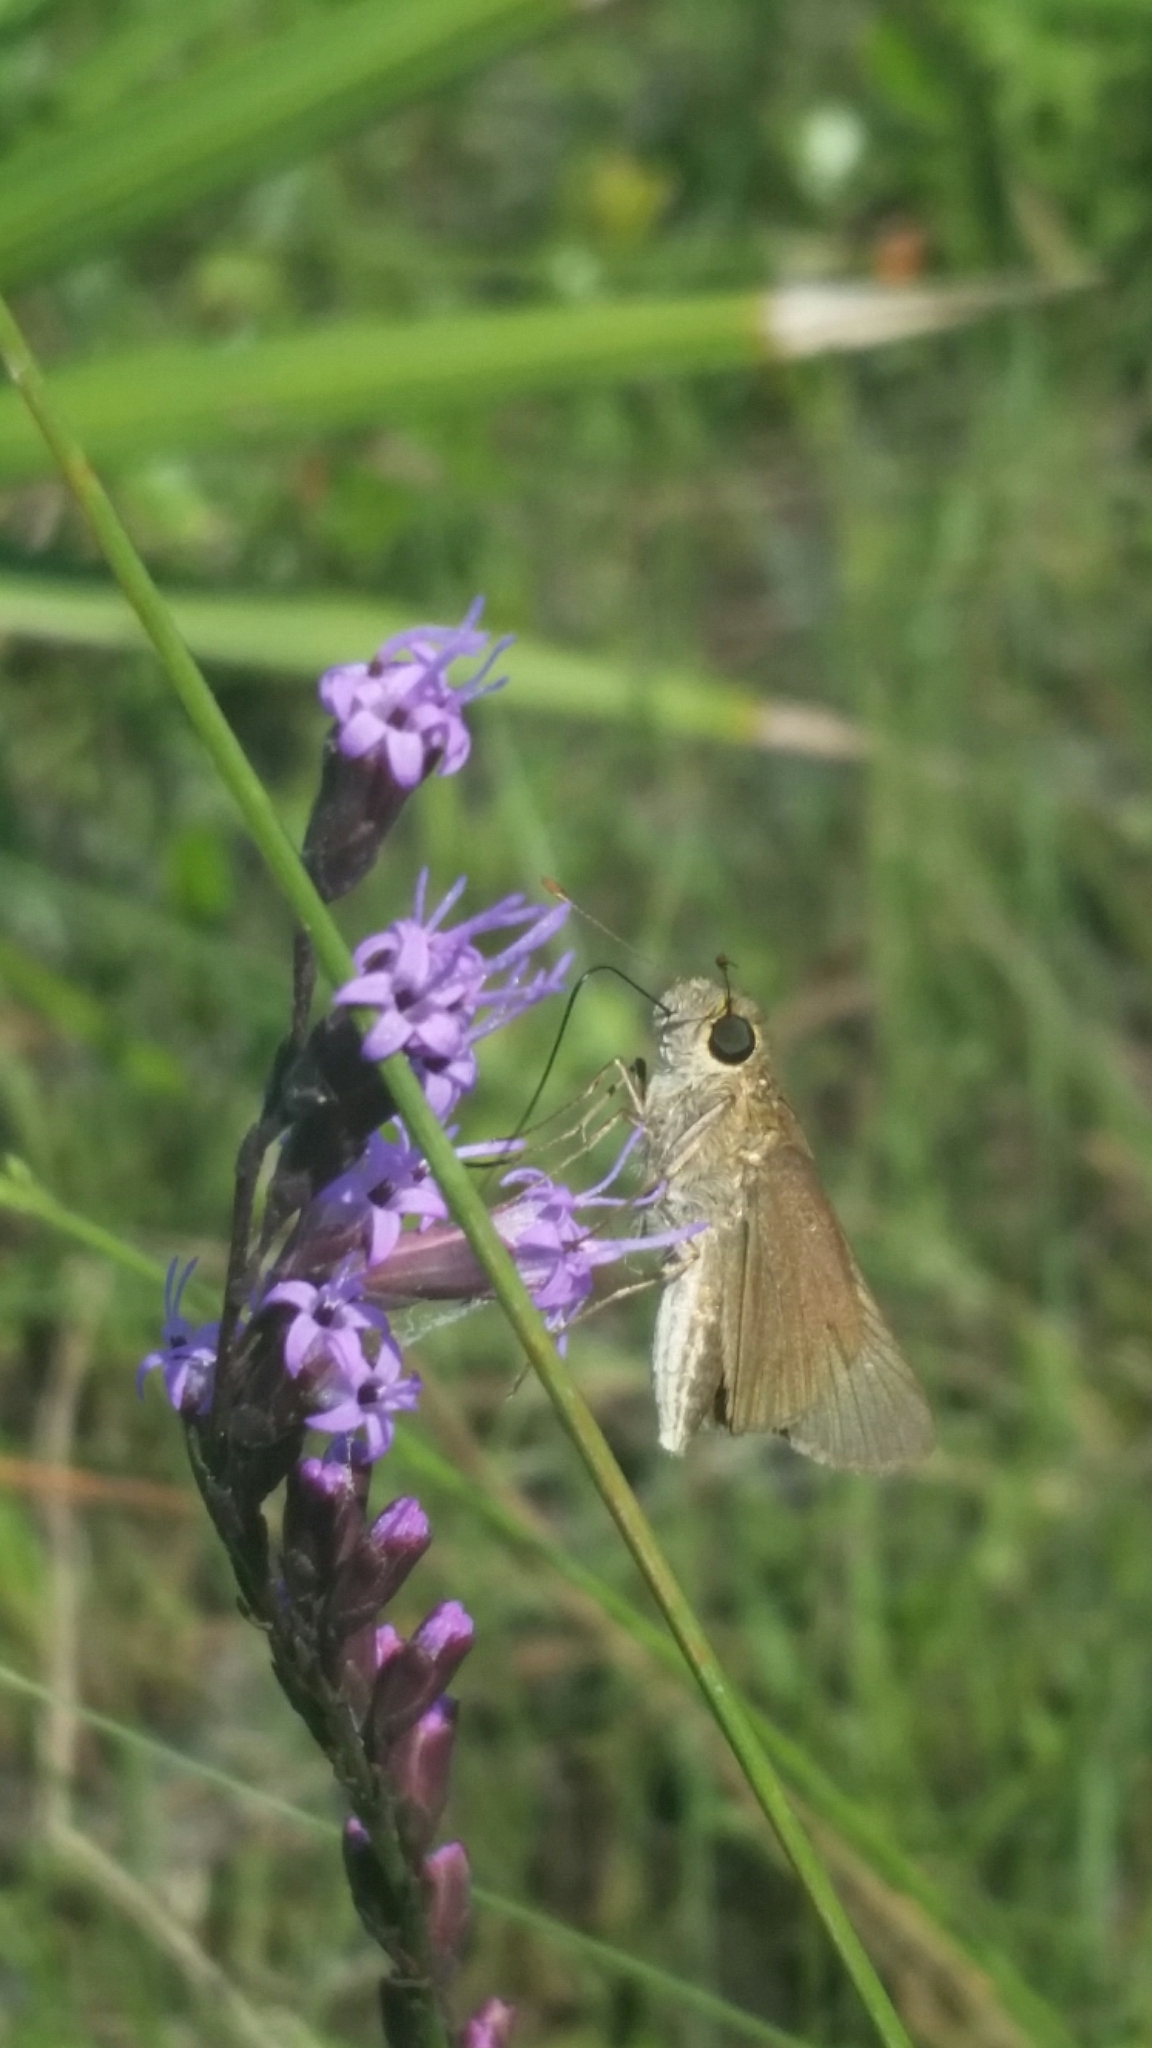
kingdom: Animalia
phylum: Arthropoda
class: Insecta
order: Lepidoptera
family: Hesperiidae
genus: Panoquina
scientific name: Panoquina ocola
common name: Ocola skipper
